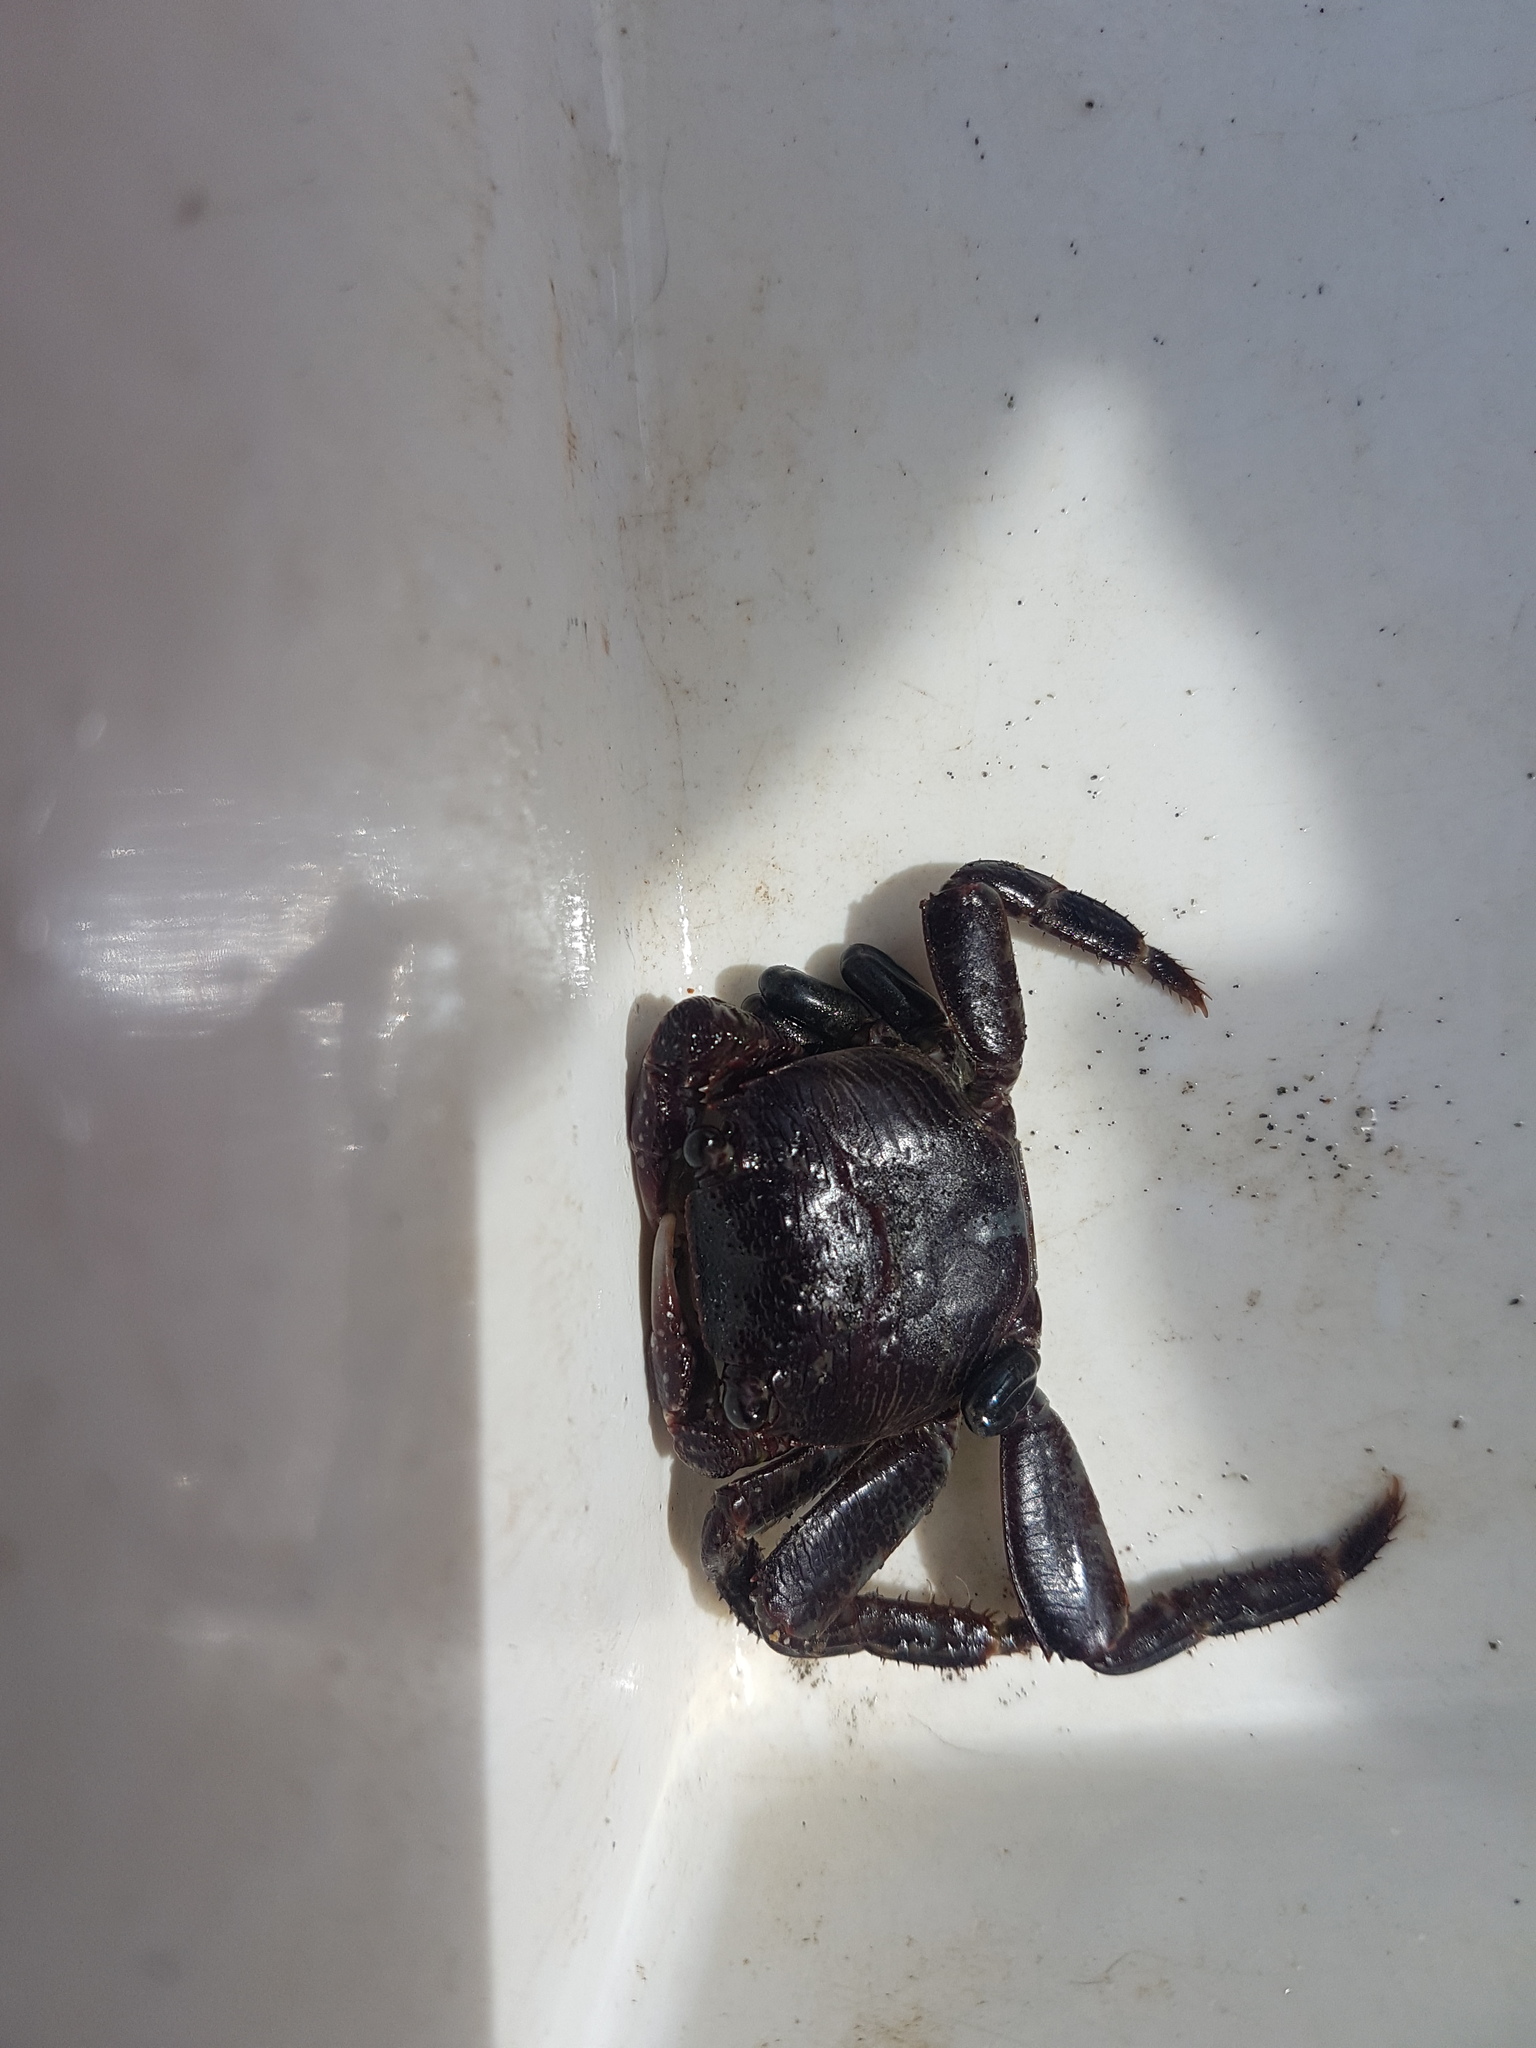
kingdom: Animalia
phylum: Arthropoda
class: Malacostraca
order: Decapoda
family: Grapsidae
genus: Leptograpsus
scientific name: Leptograpsus variegatus
